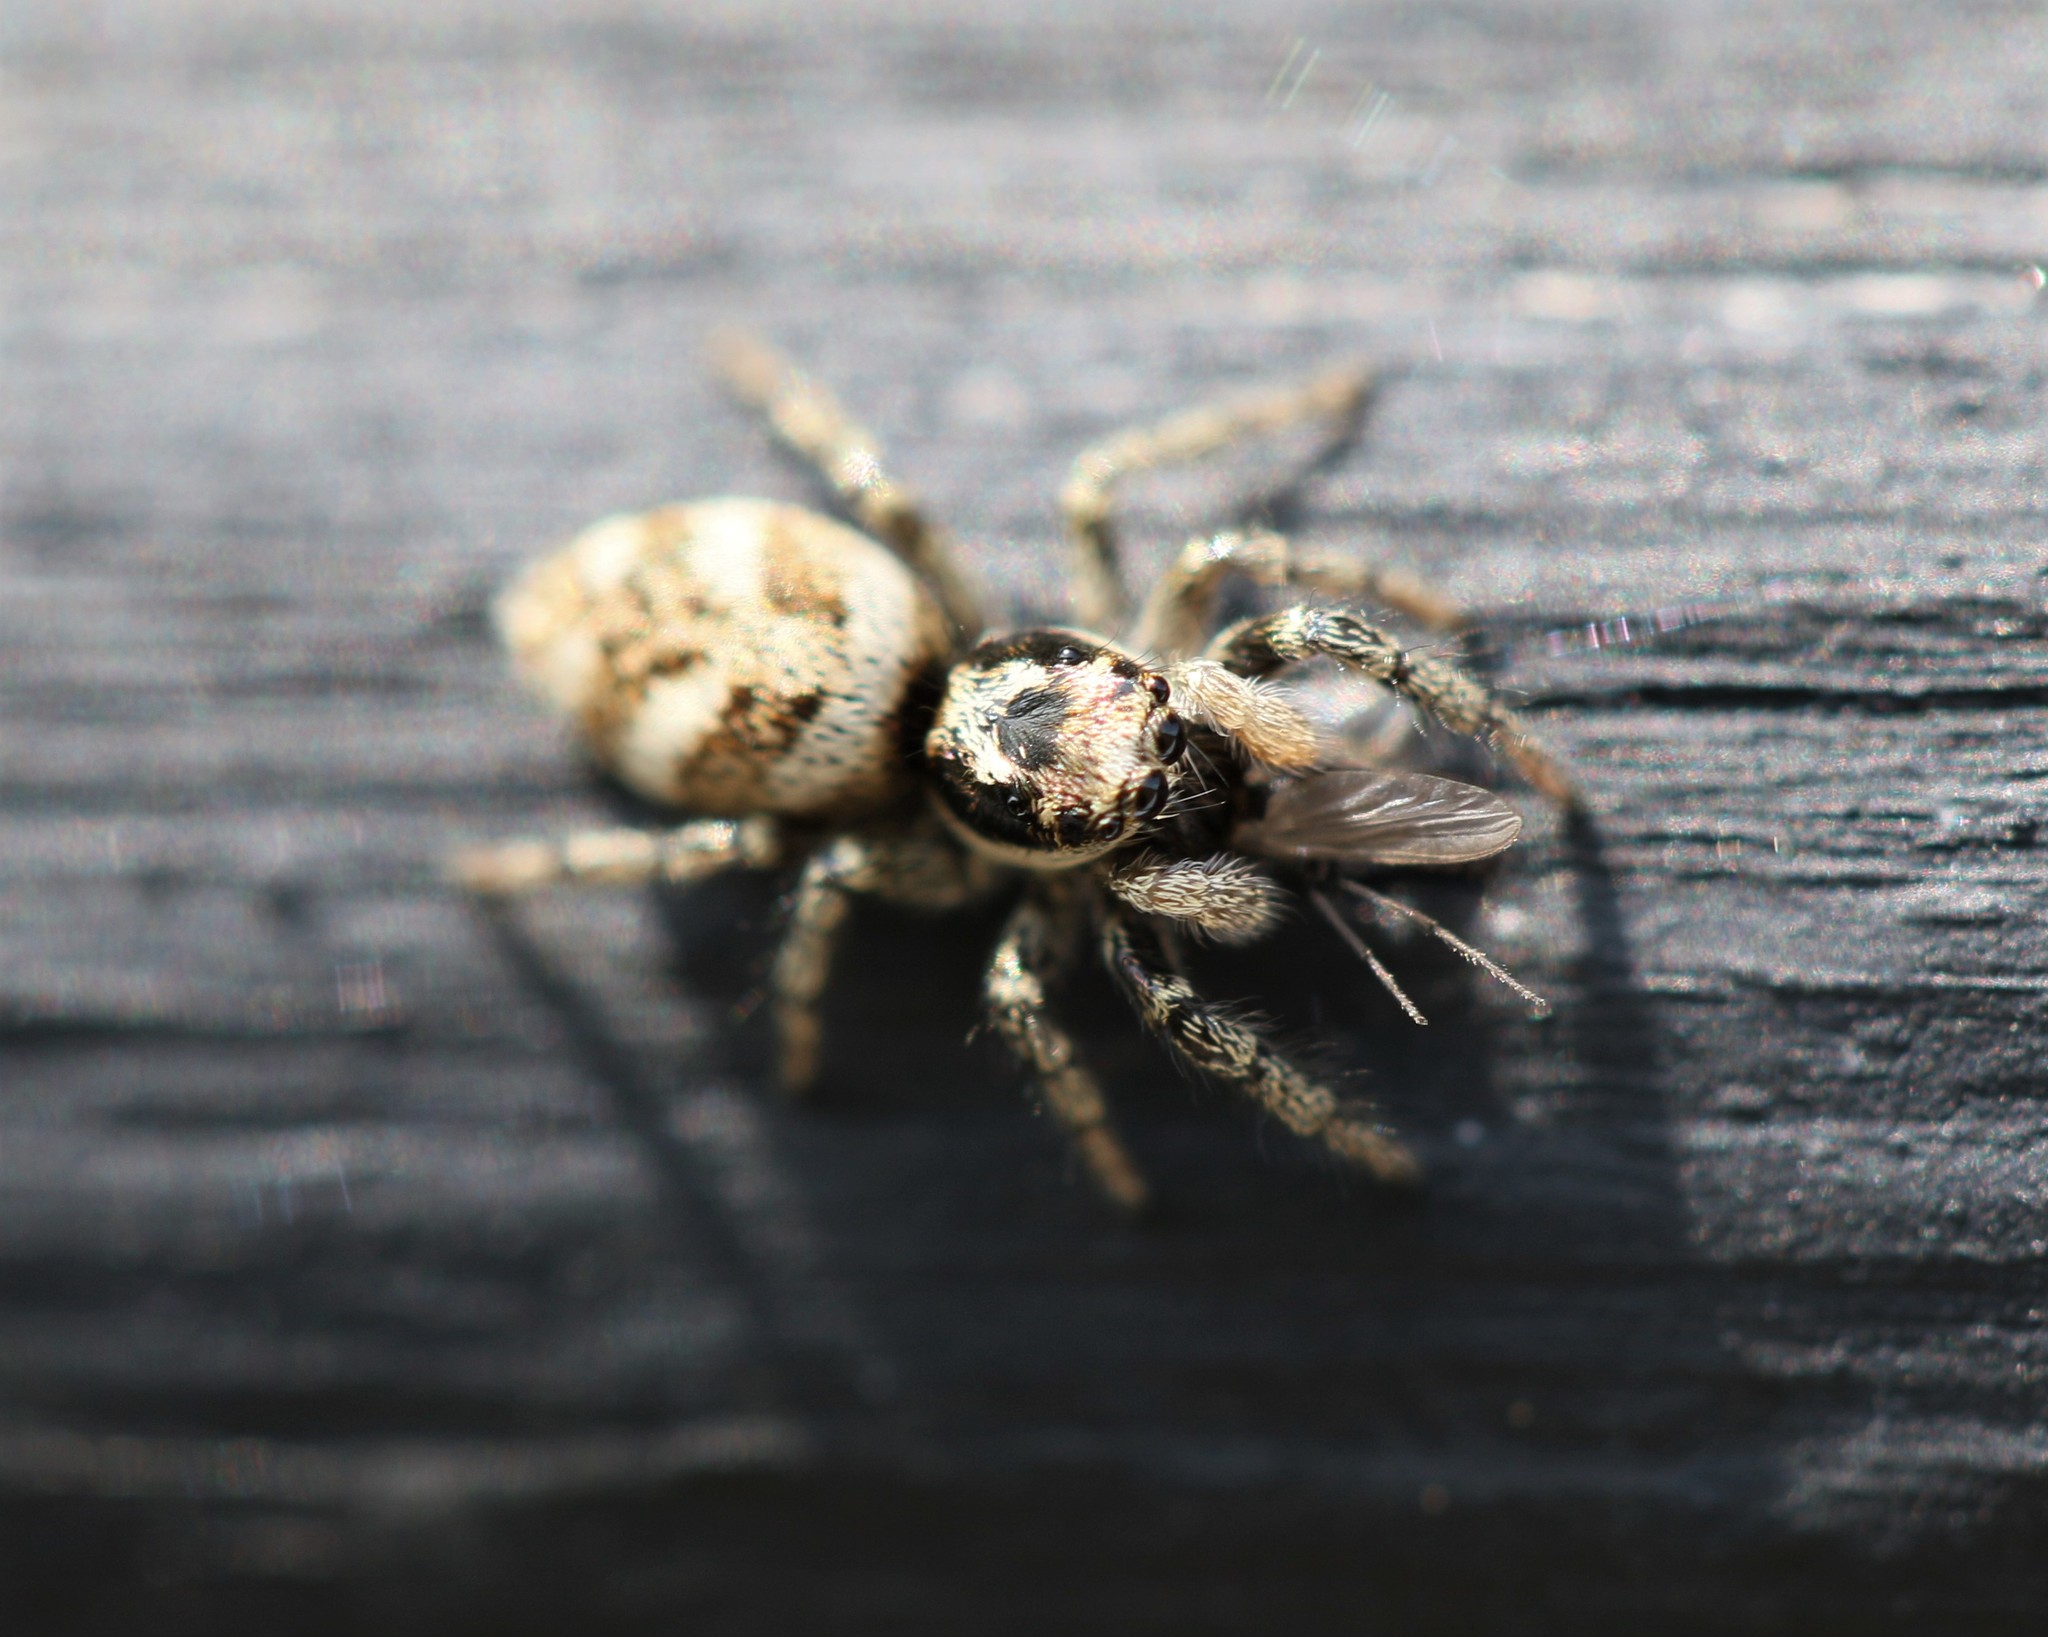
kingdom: Animalia
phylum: Arthropoda
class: Arachnida
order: Araneae
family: Salticidae
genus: Salticus
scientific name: Salticus scenicus
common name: Zebra jumper
